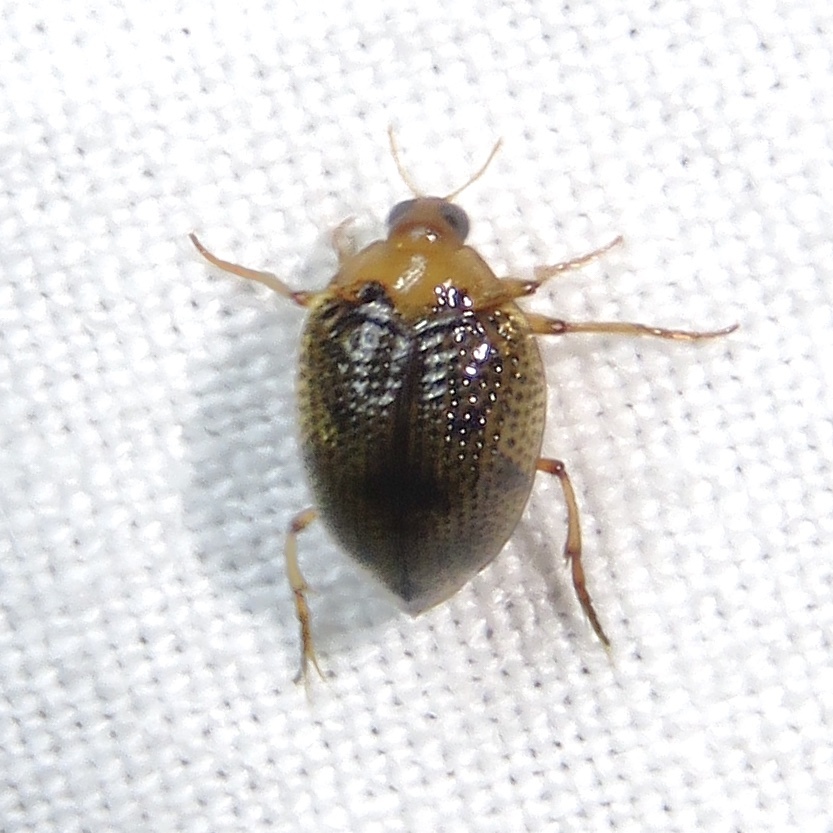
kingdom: Animalia
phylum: Arthropoda
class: Insecta
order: Coleoptera
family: Haliplidae
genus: Peltodytes
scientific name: Peltodytes tortulosus
